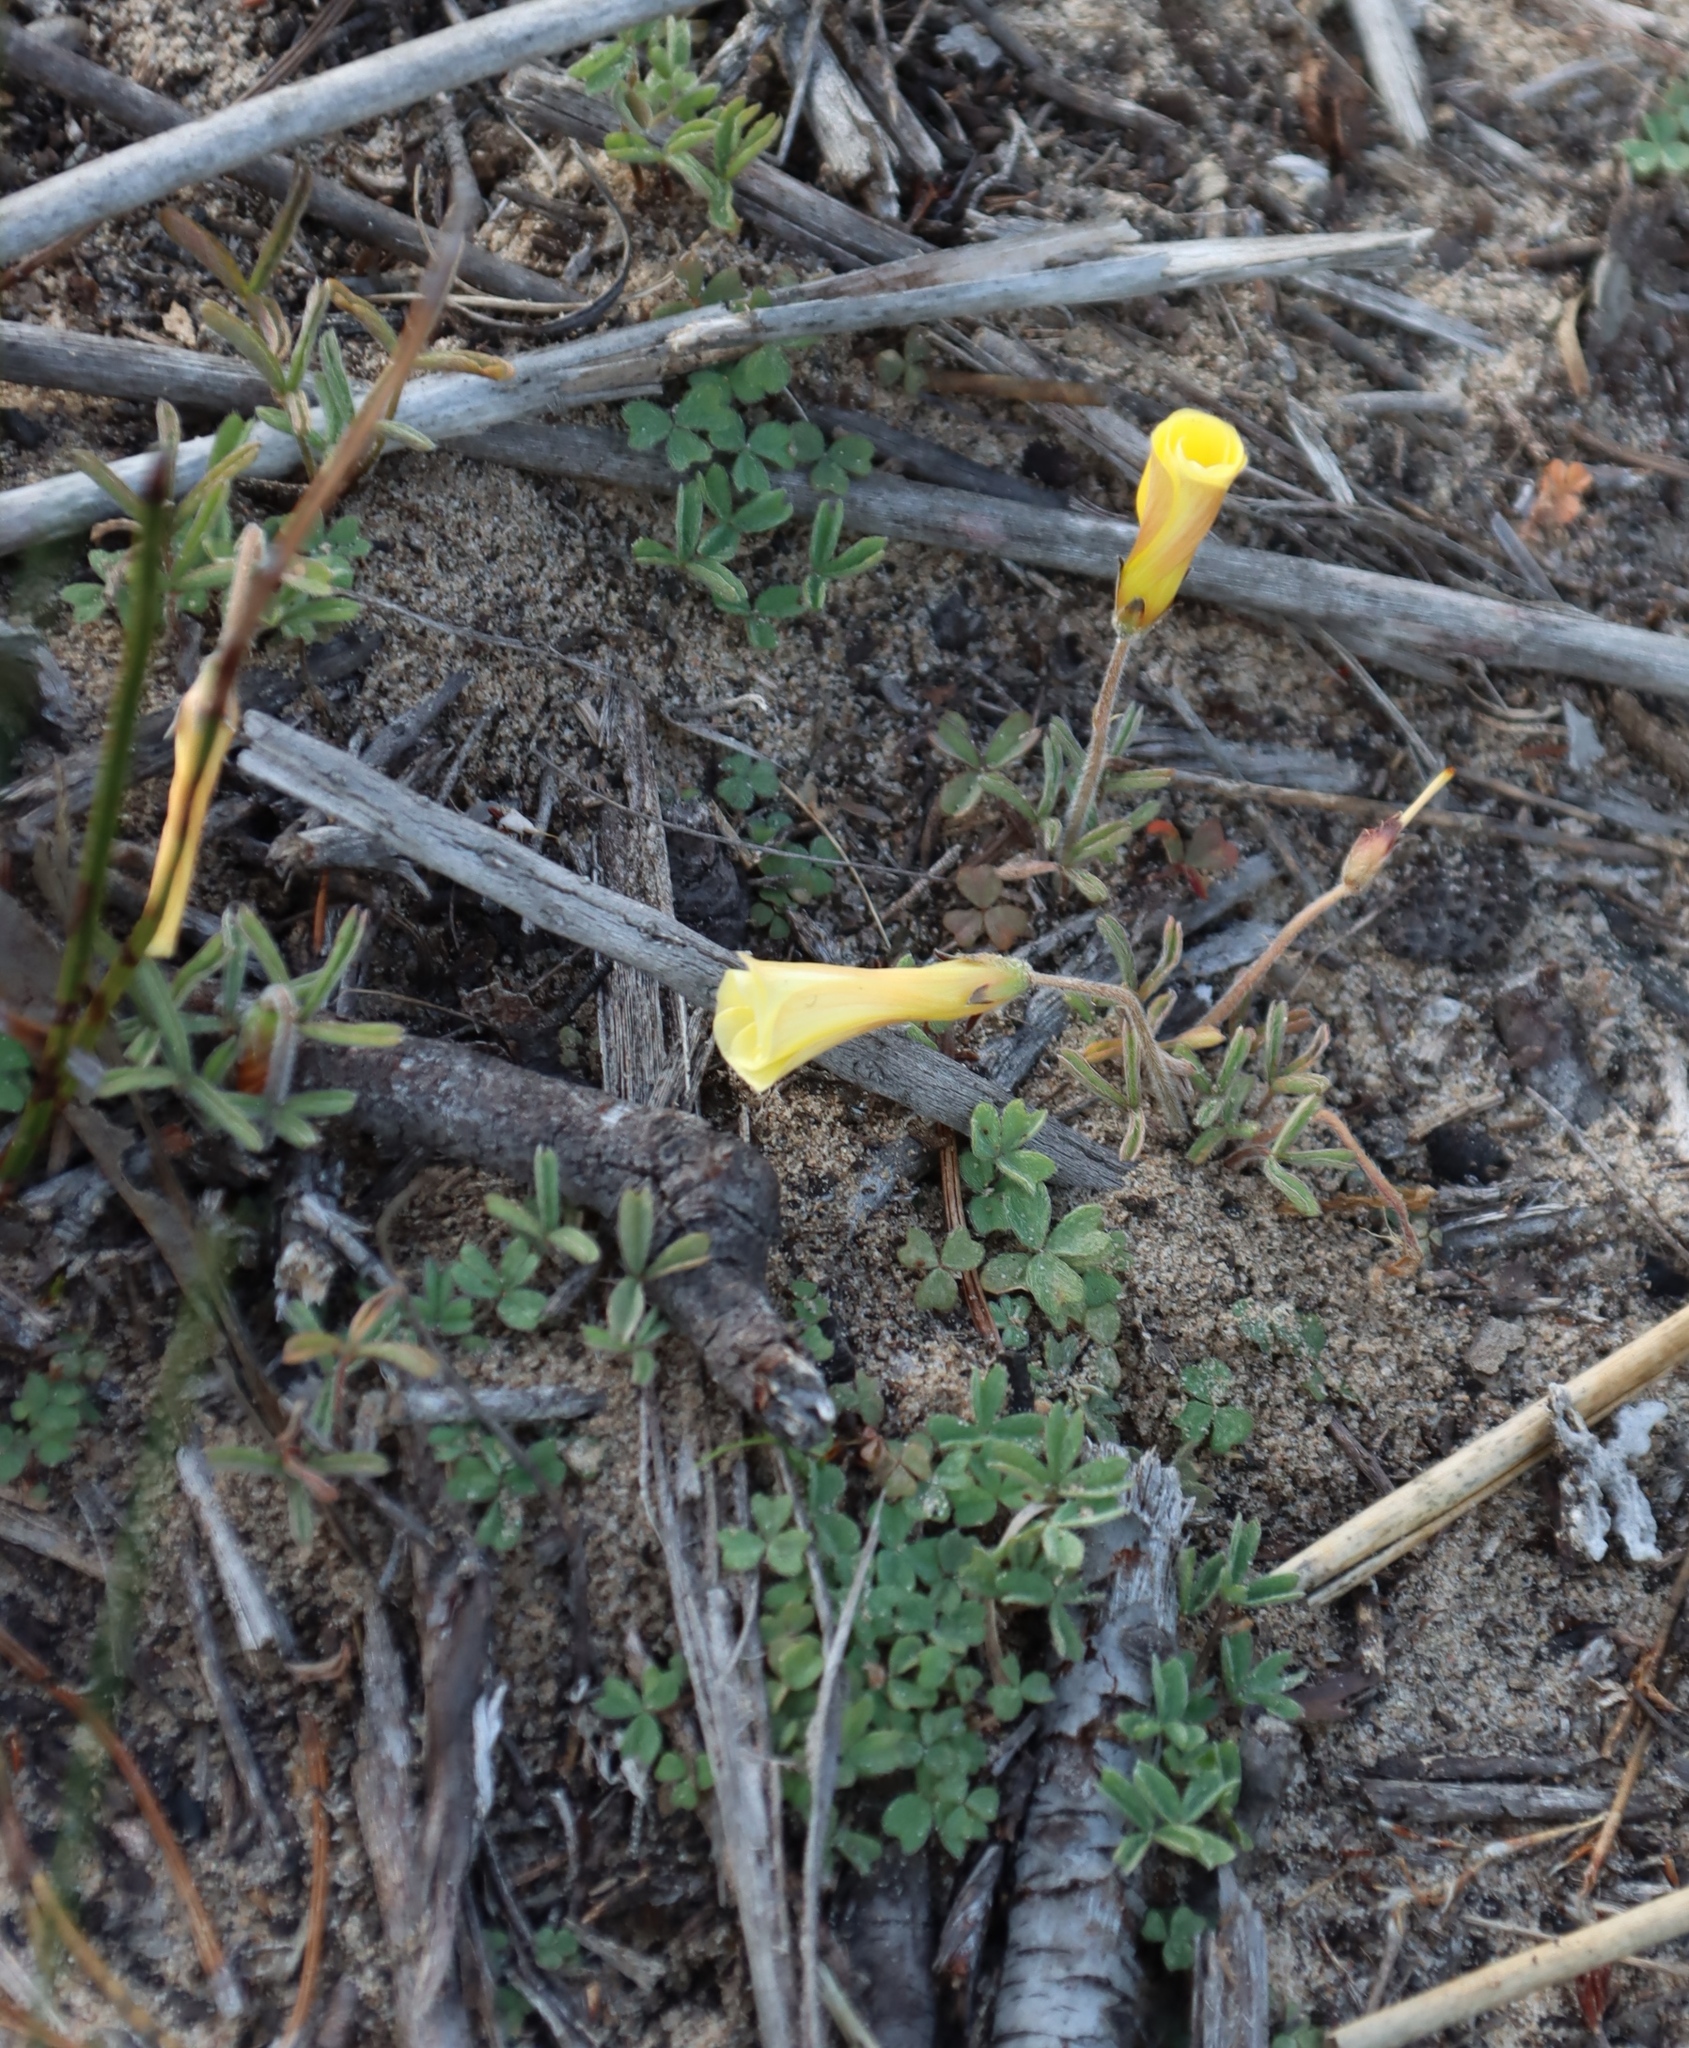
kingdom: Plantae
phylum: Tracheophyta
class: Magnoliopsida
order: Oxalidales
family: Oxalidaceae
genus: Oxalis
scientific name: Oxalis obtusa
